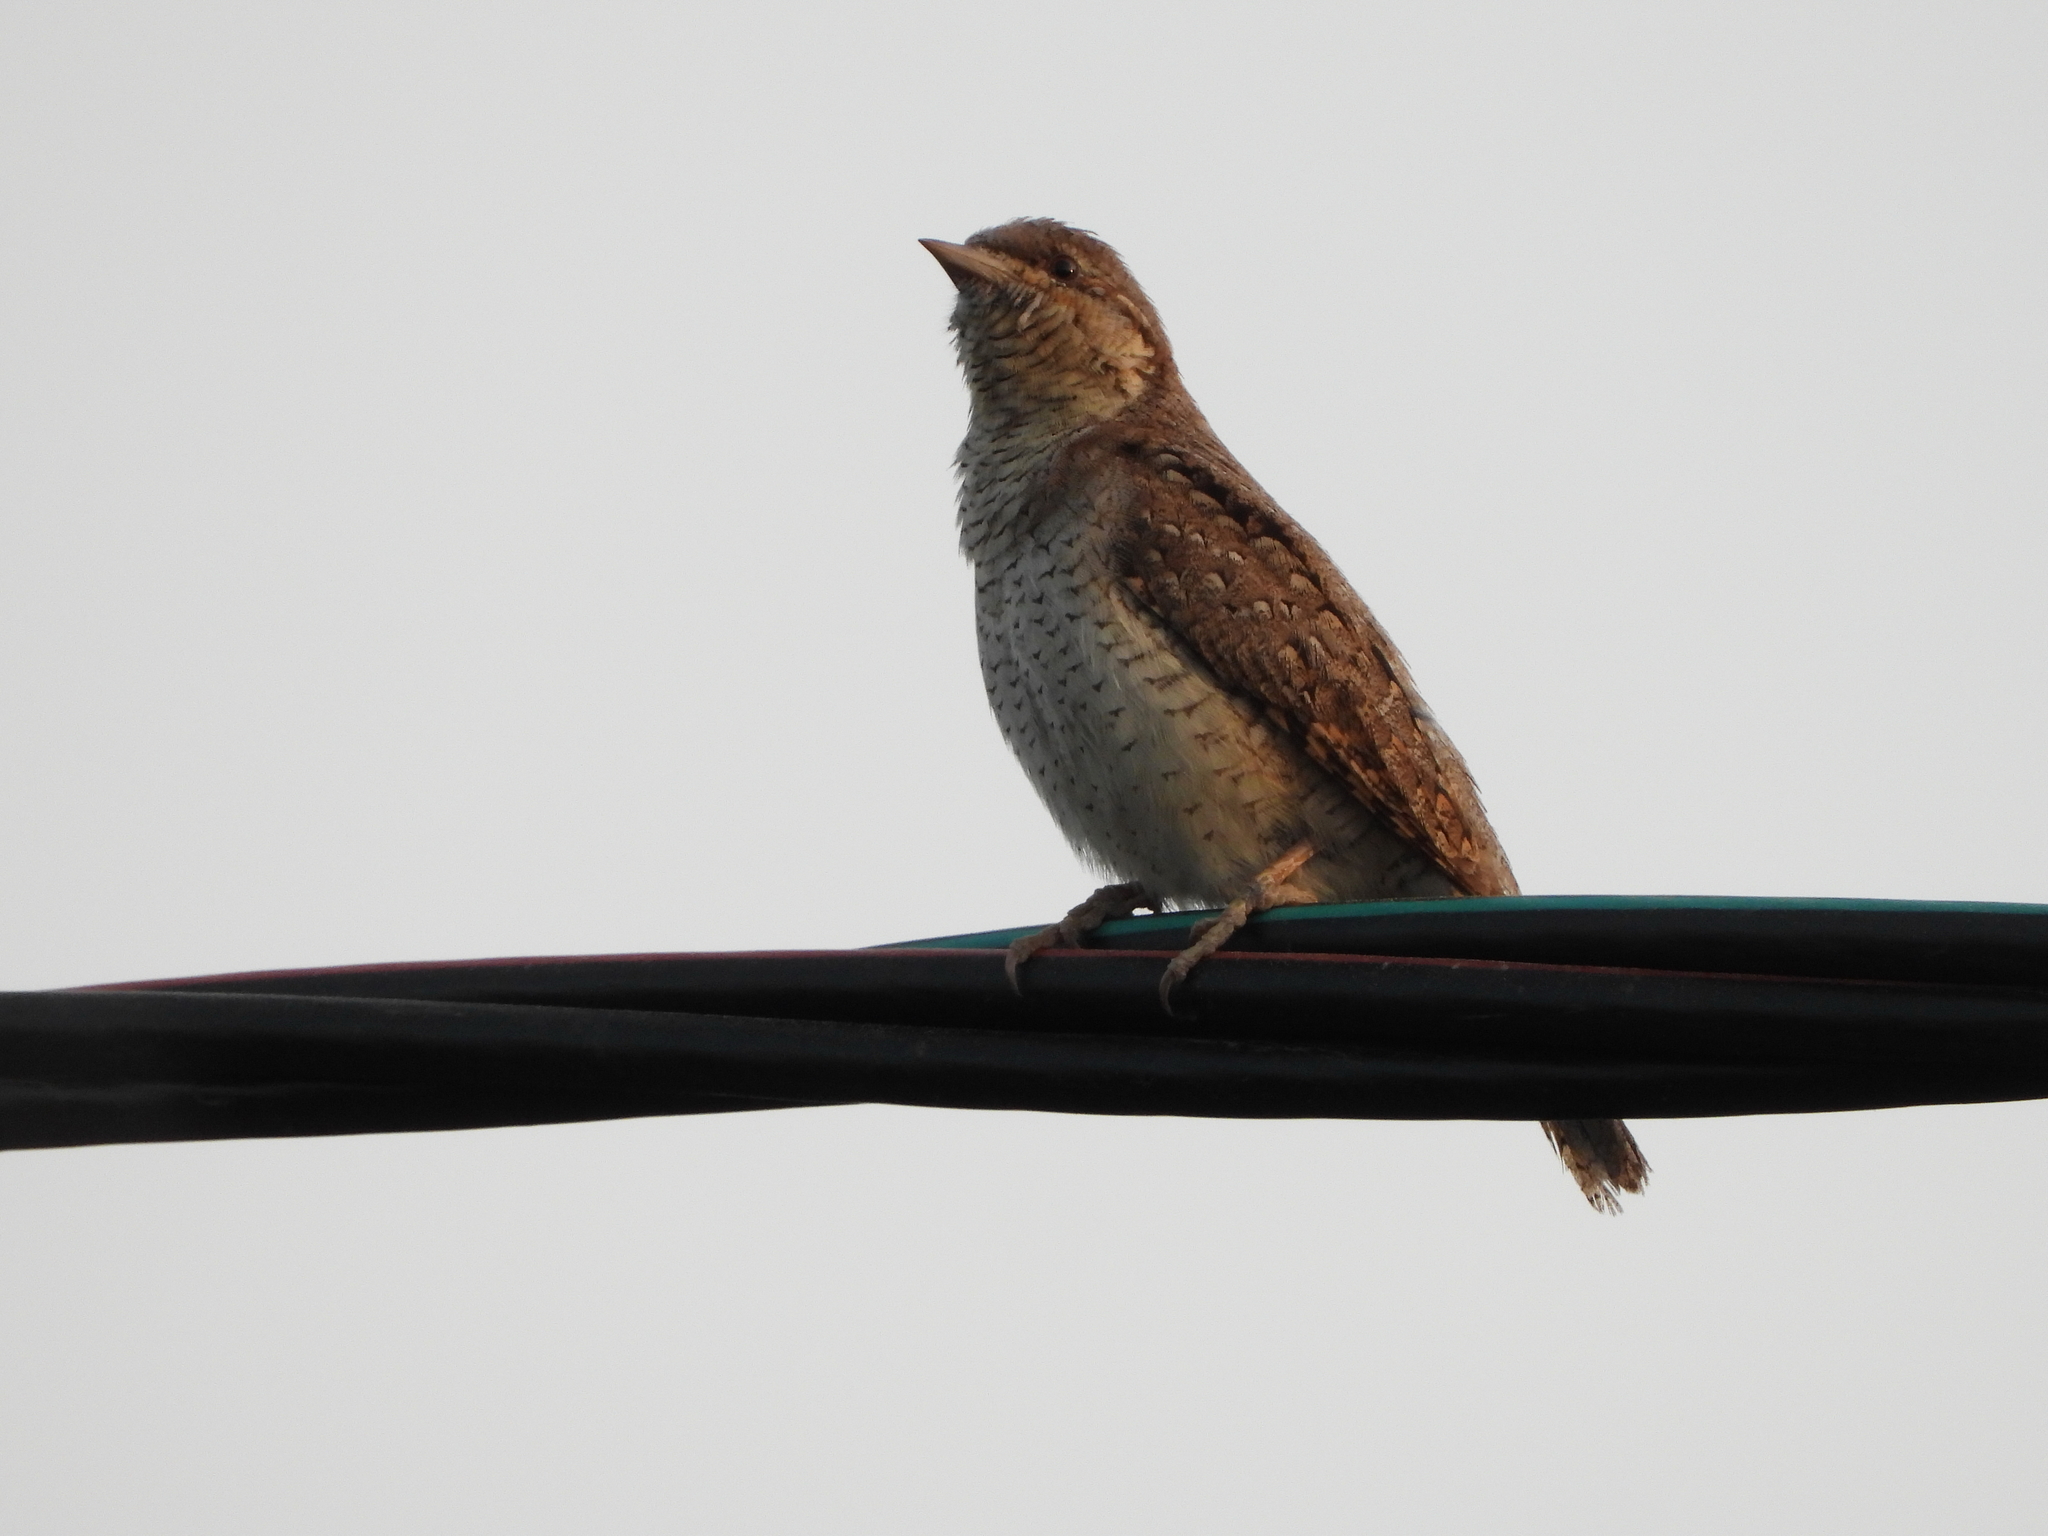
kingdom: Animalia
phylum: Chordata
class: Aves
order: Piciformes
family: Picidae
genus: Jynx
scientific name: Jynx torquilla
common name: Eurasian wryneck
